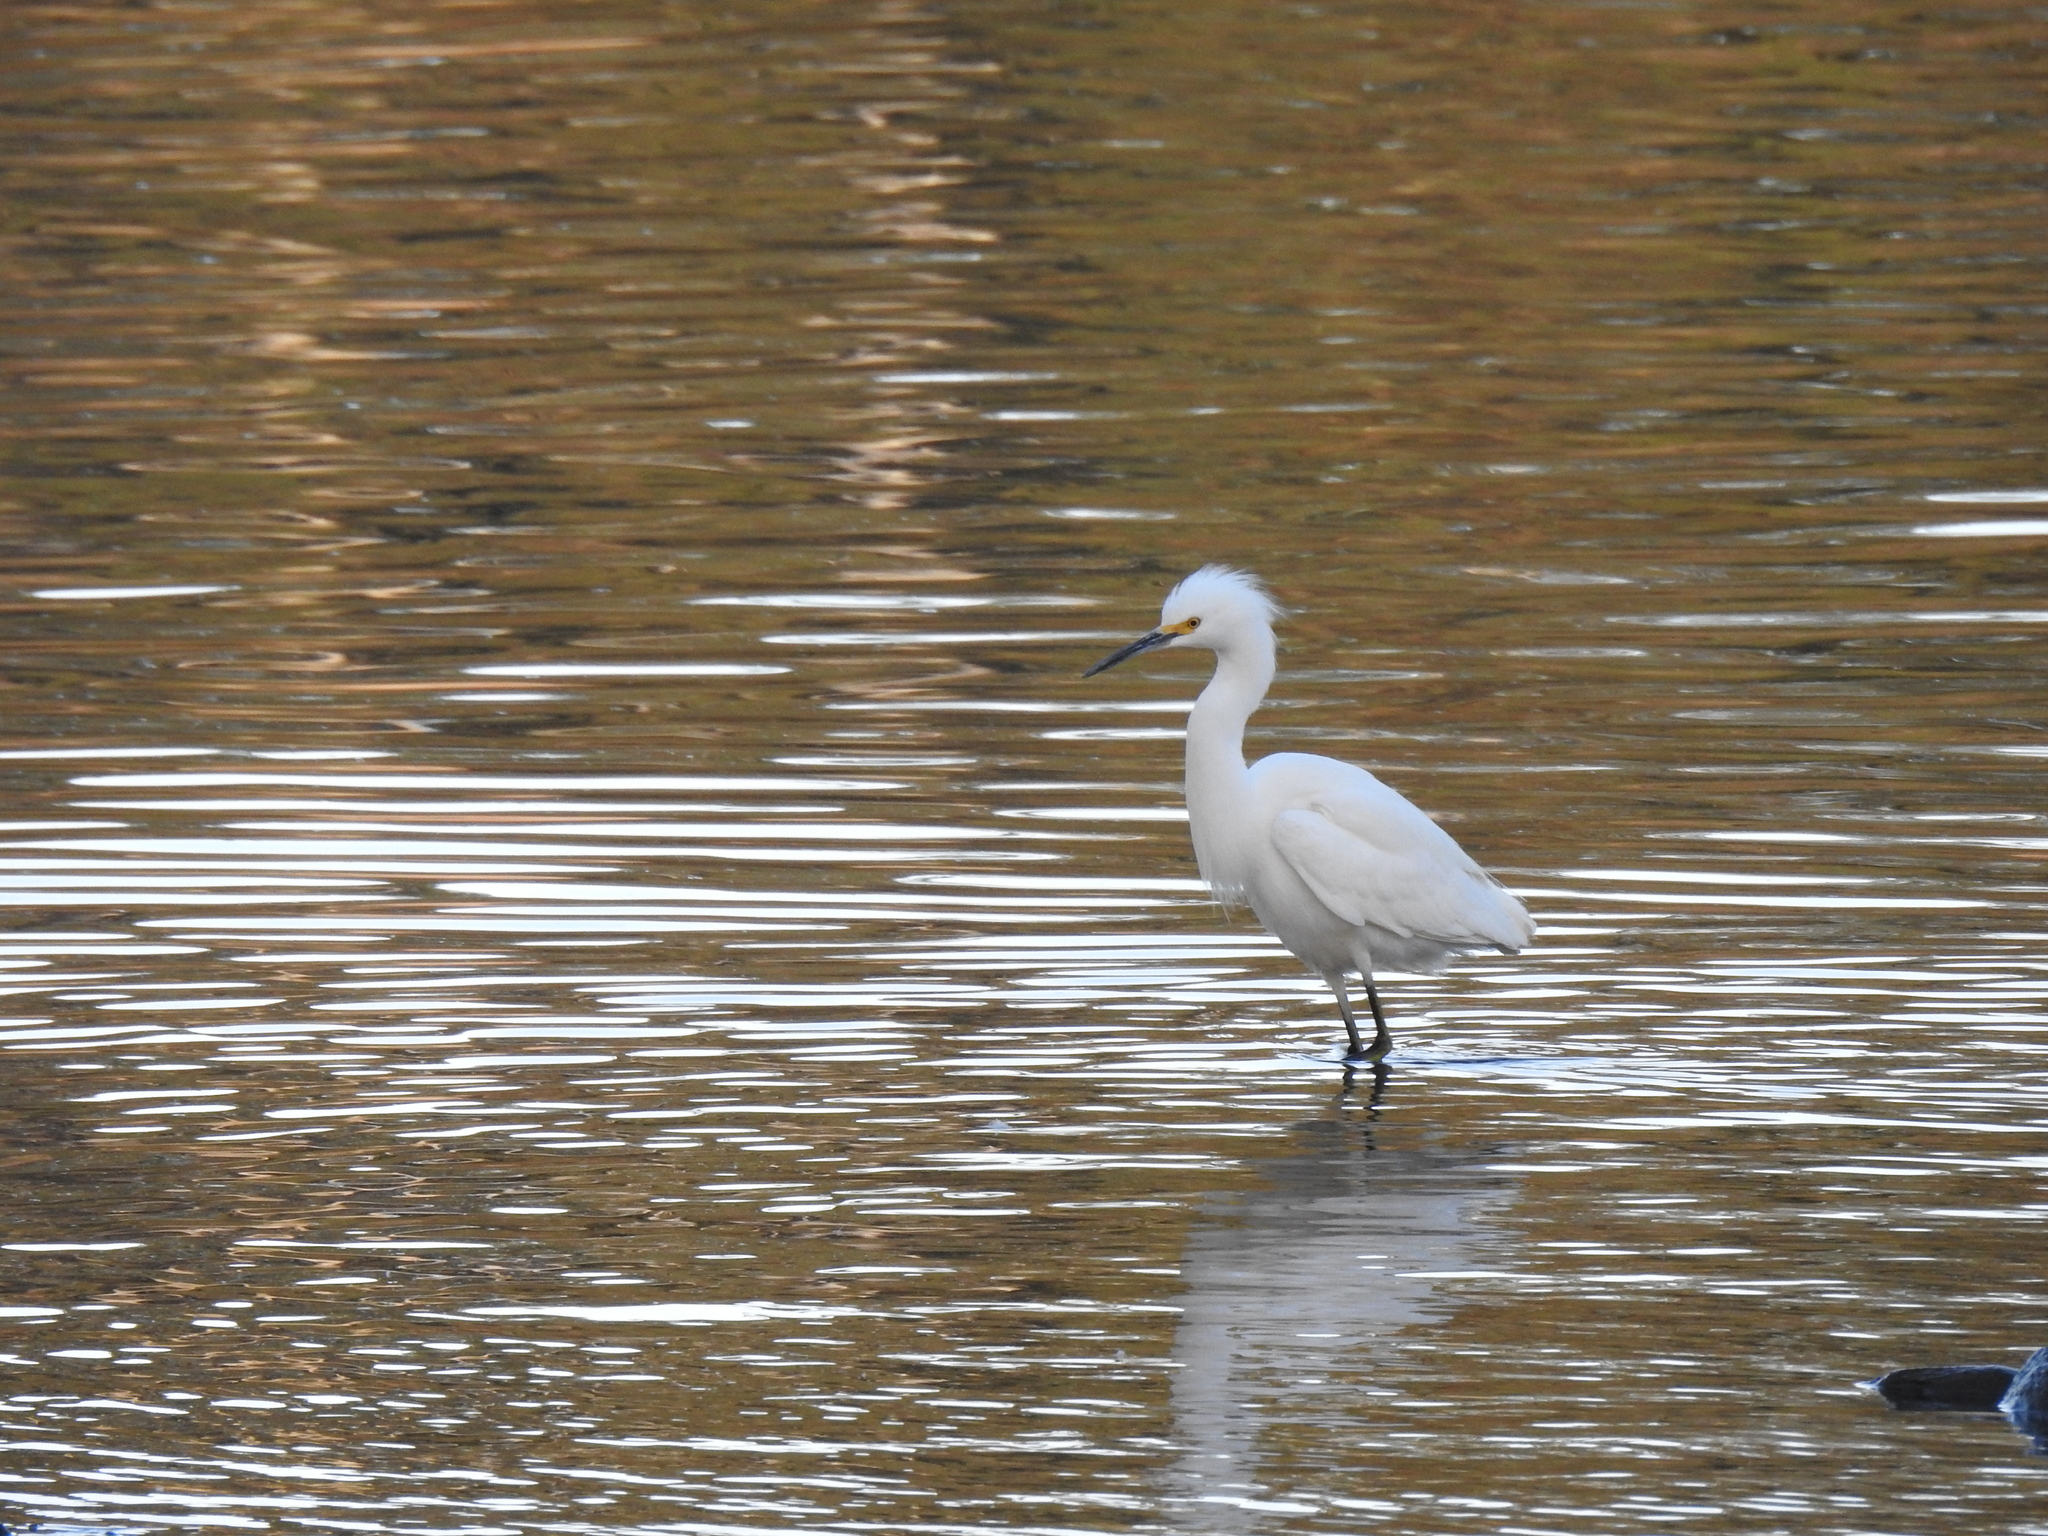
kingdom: Animalia
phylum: Chordata
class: Aves
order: Pelecaniformes
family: Ardeidae
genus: Egretta
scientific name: Egretta thula
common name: Snowy egret
